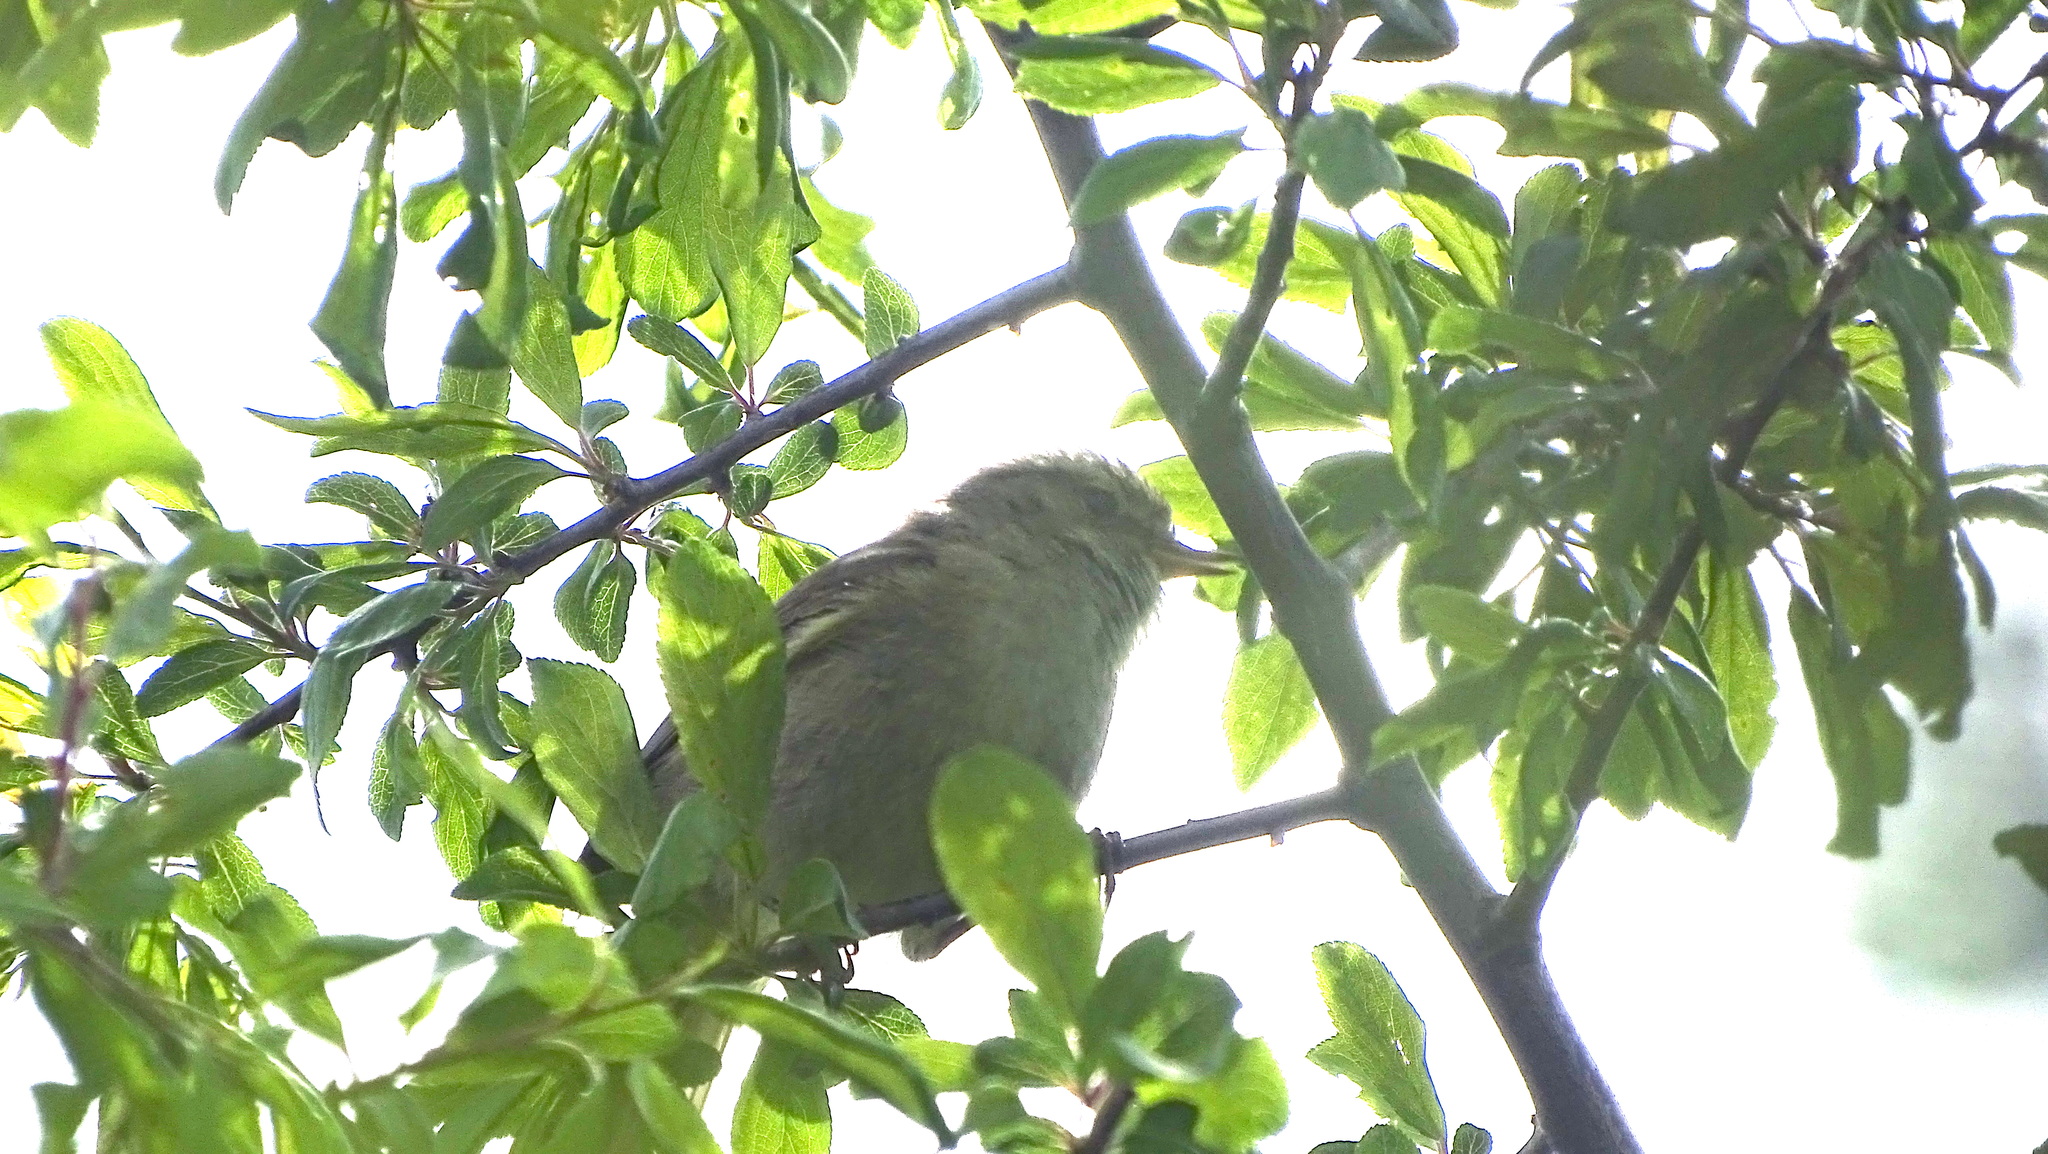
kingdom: Animalia
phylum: Chordata
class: Aves
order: Passeriformes
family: Phylloscopidae
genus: Phylloscopus
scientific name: Phylloscopus collybita
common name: Common chiffchaff
